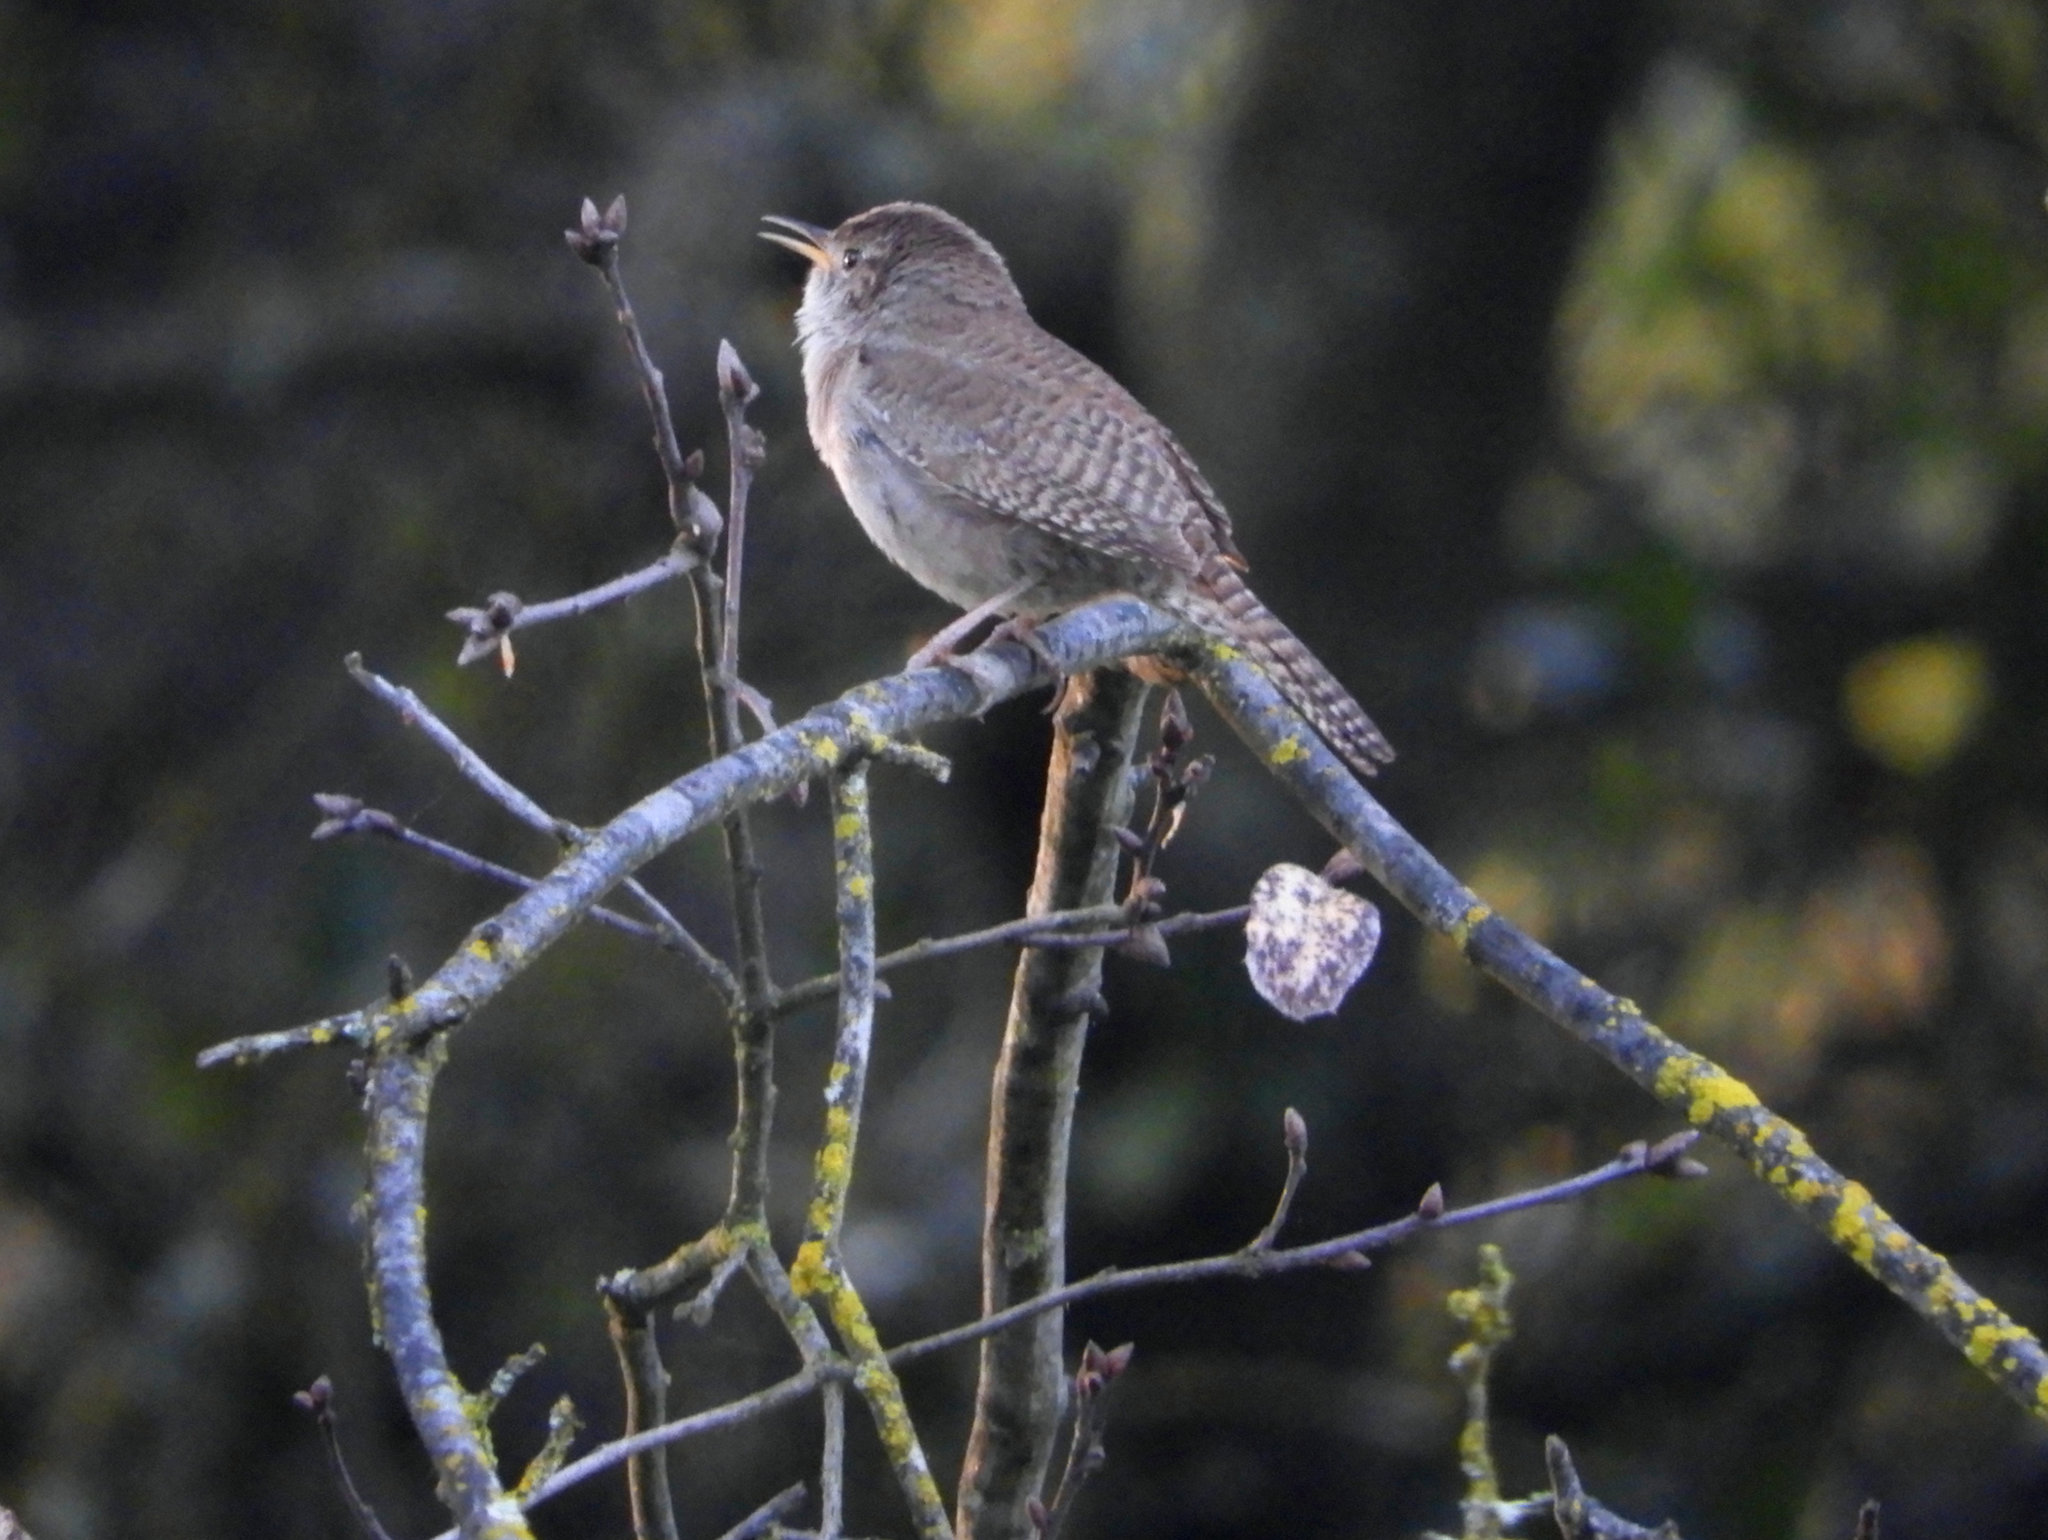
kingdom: Animalia
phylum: Chordata
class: Aves
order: Passeriformes
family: Troglodytidae
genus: Troglodytes
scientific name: Troglodytes aedon
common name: House wren
